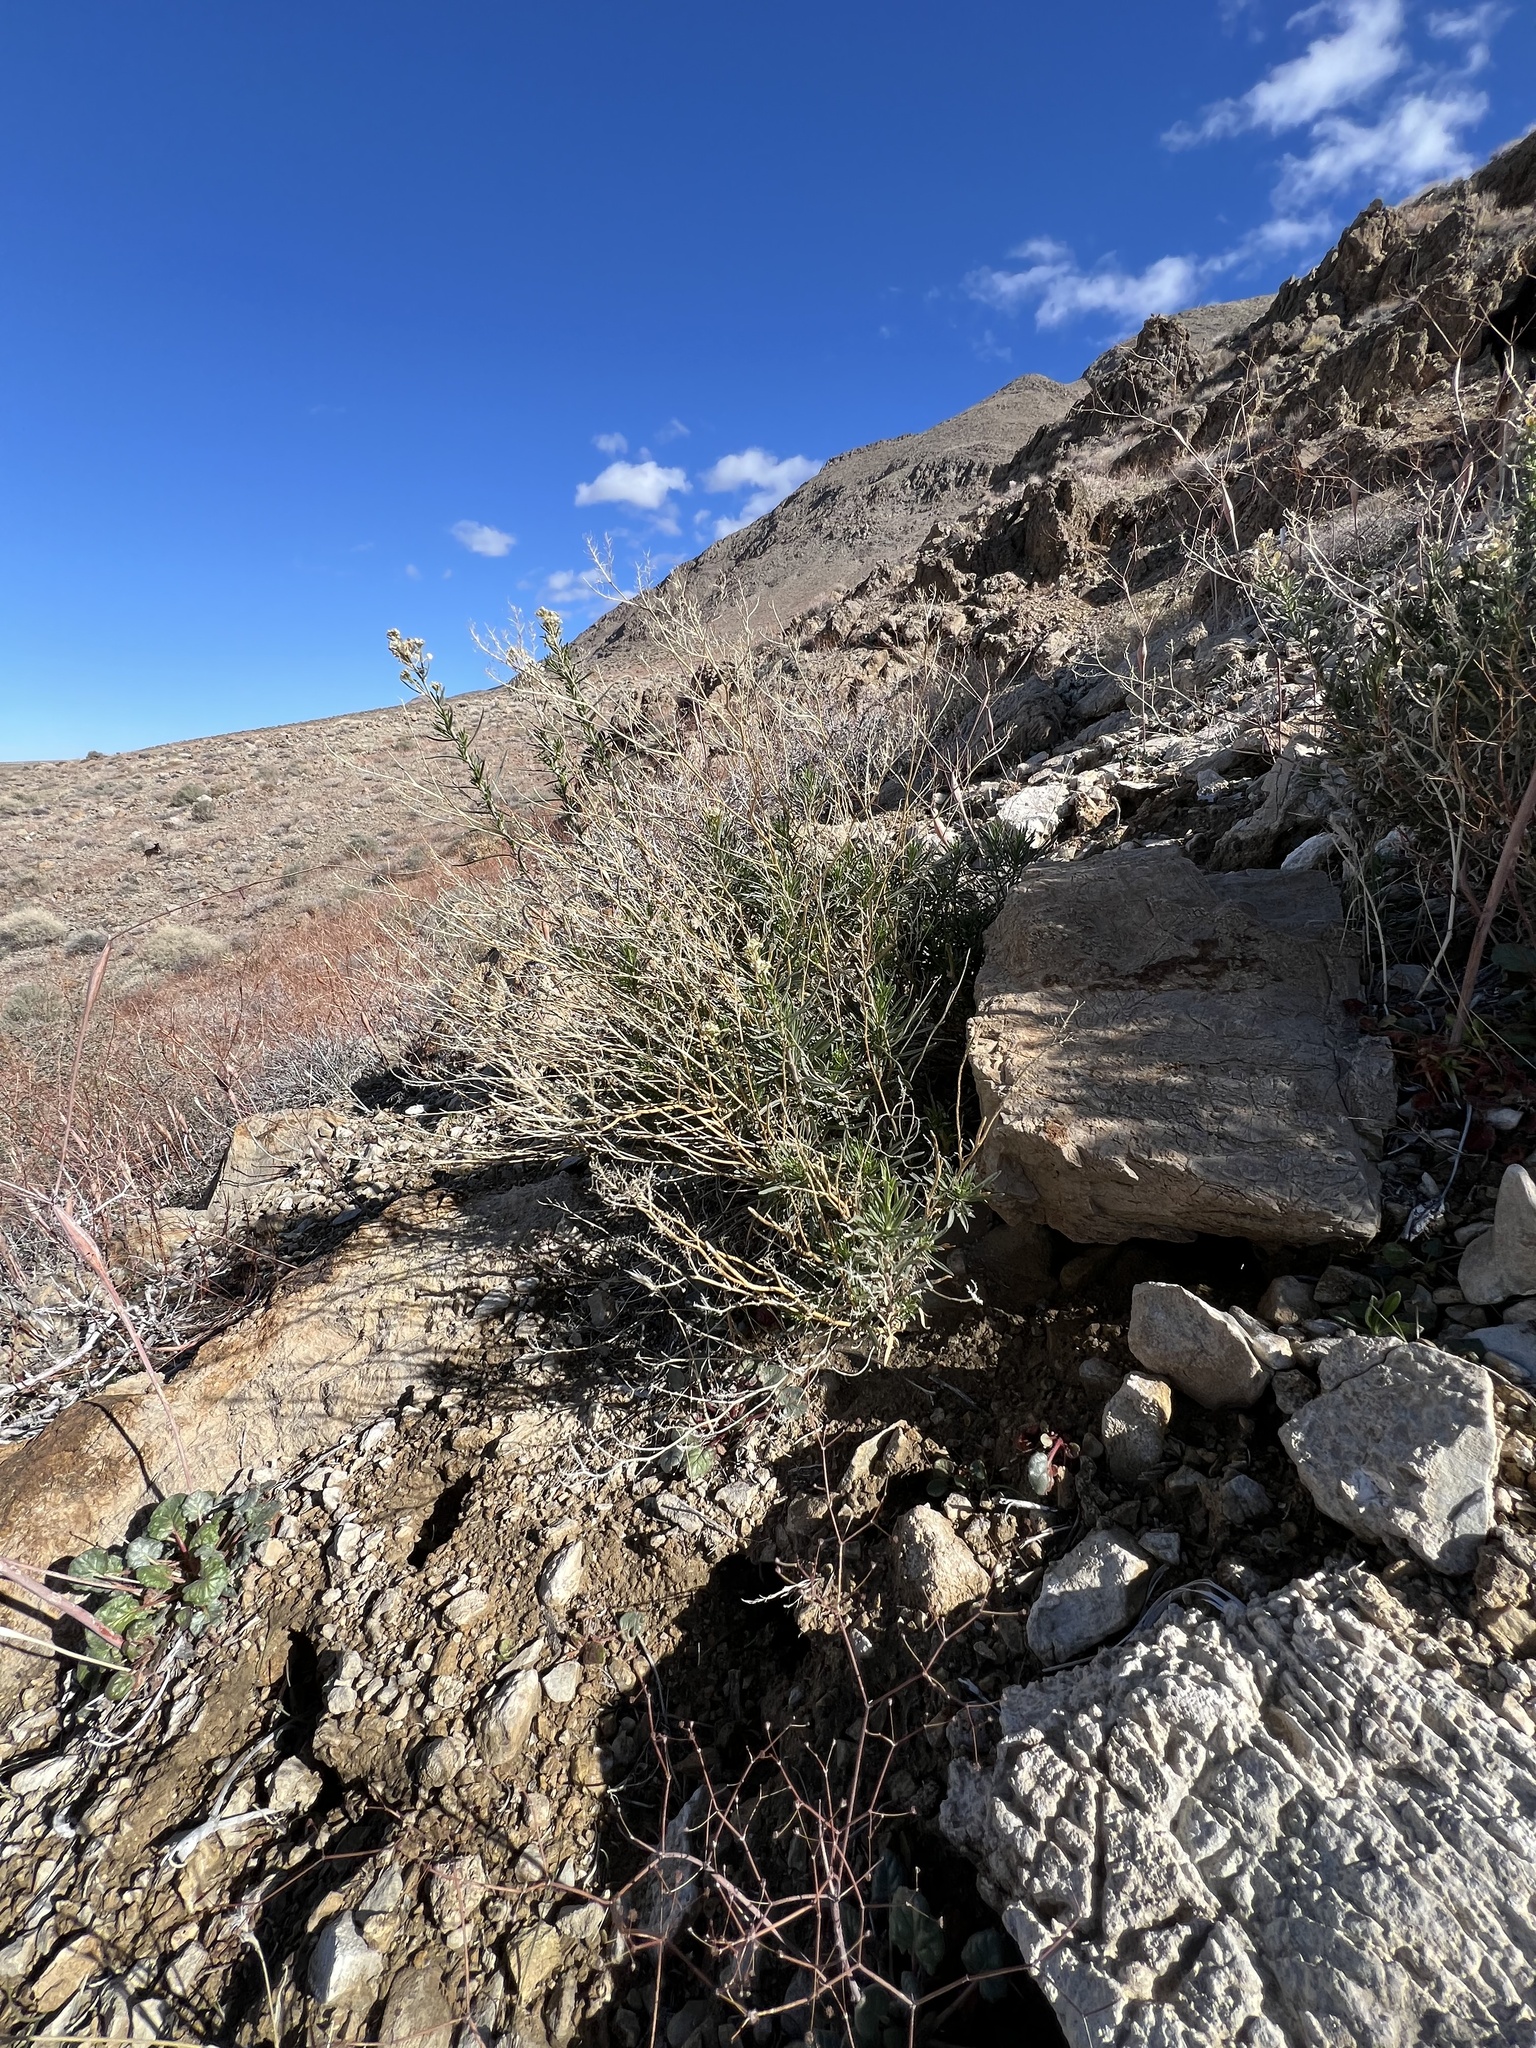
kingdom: Plantae
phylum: Tracheophyta
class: Magnoliopsida
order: Brassicales
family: Brassicaceae
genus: Lepidium
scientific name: Lepidium fremontii
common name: Fremont's pepperwort
